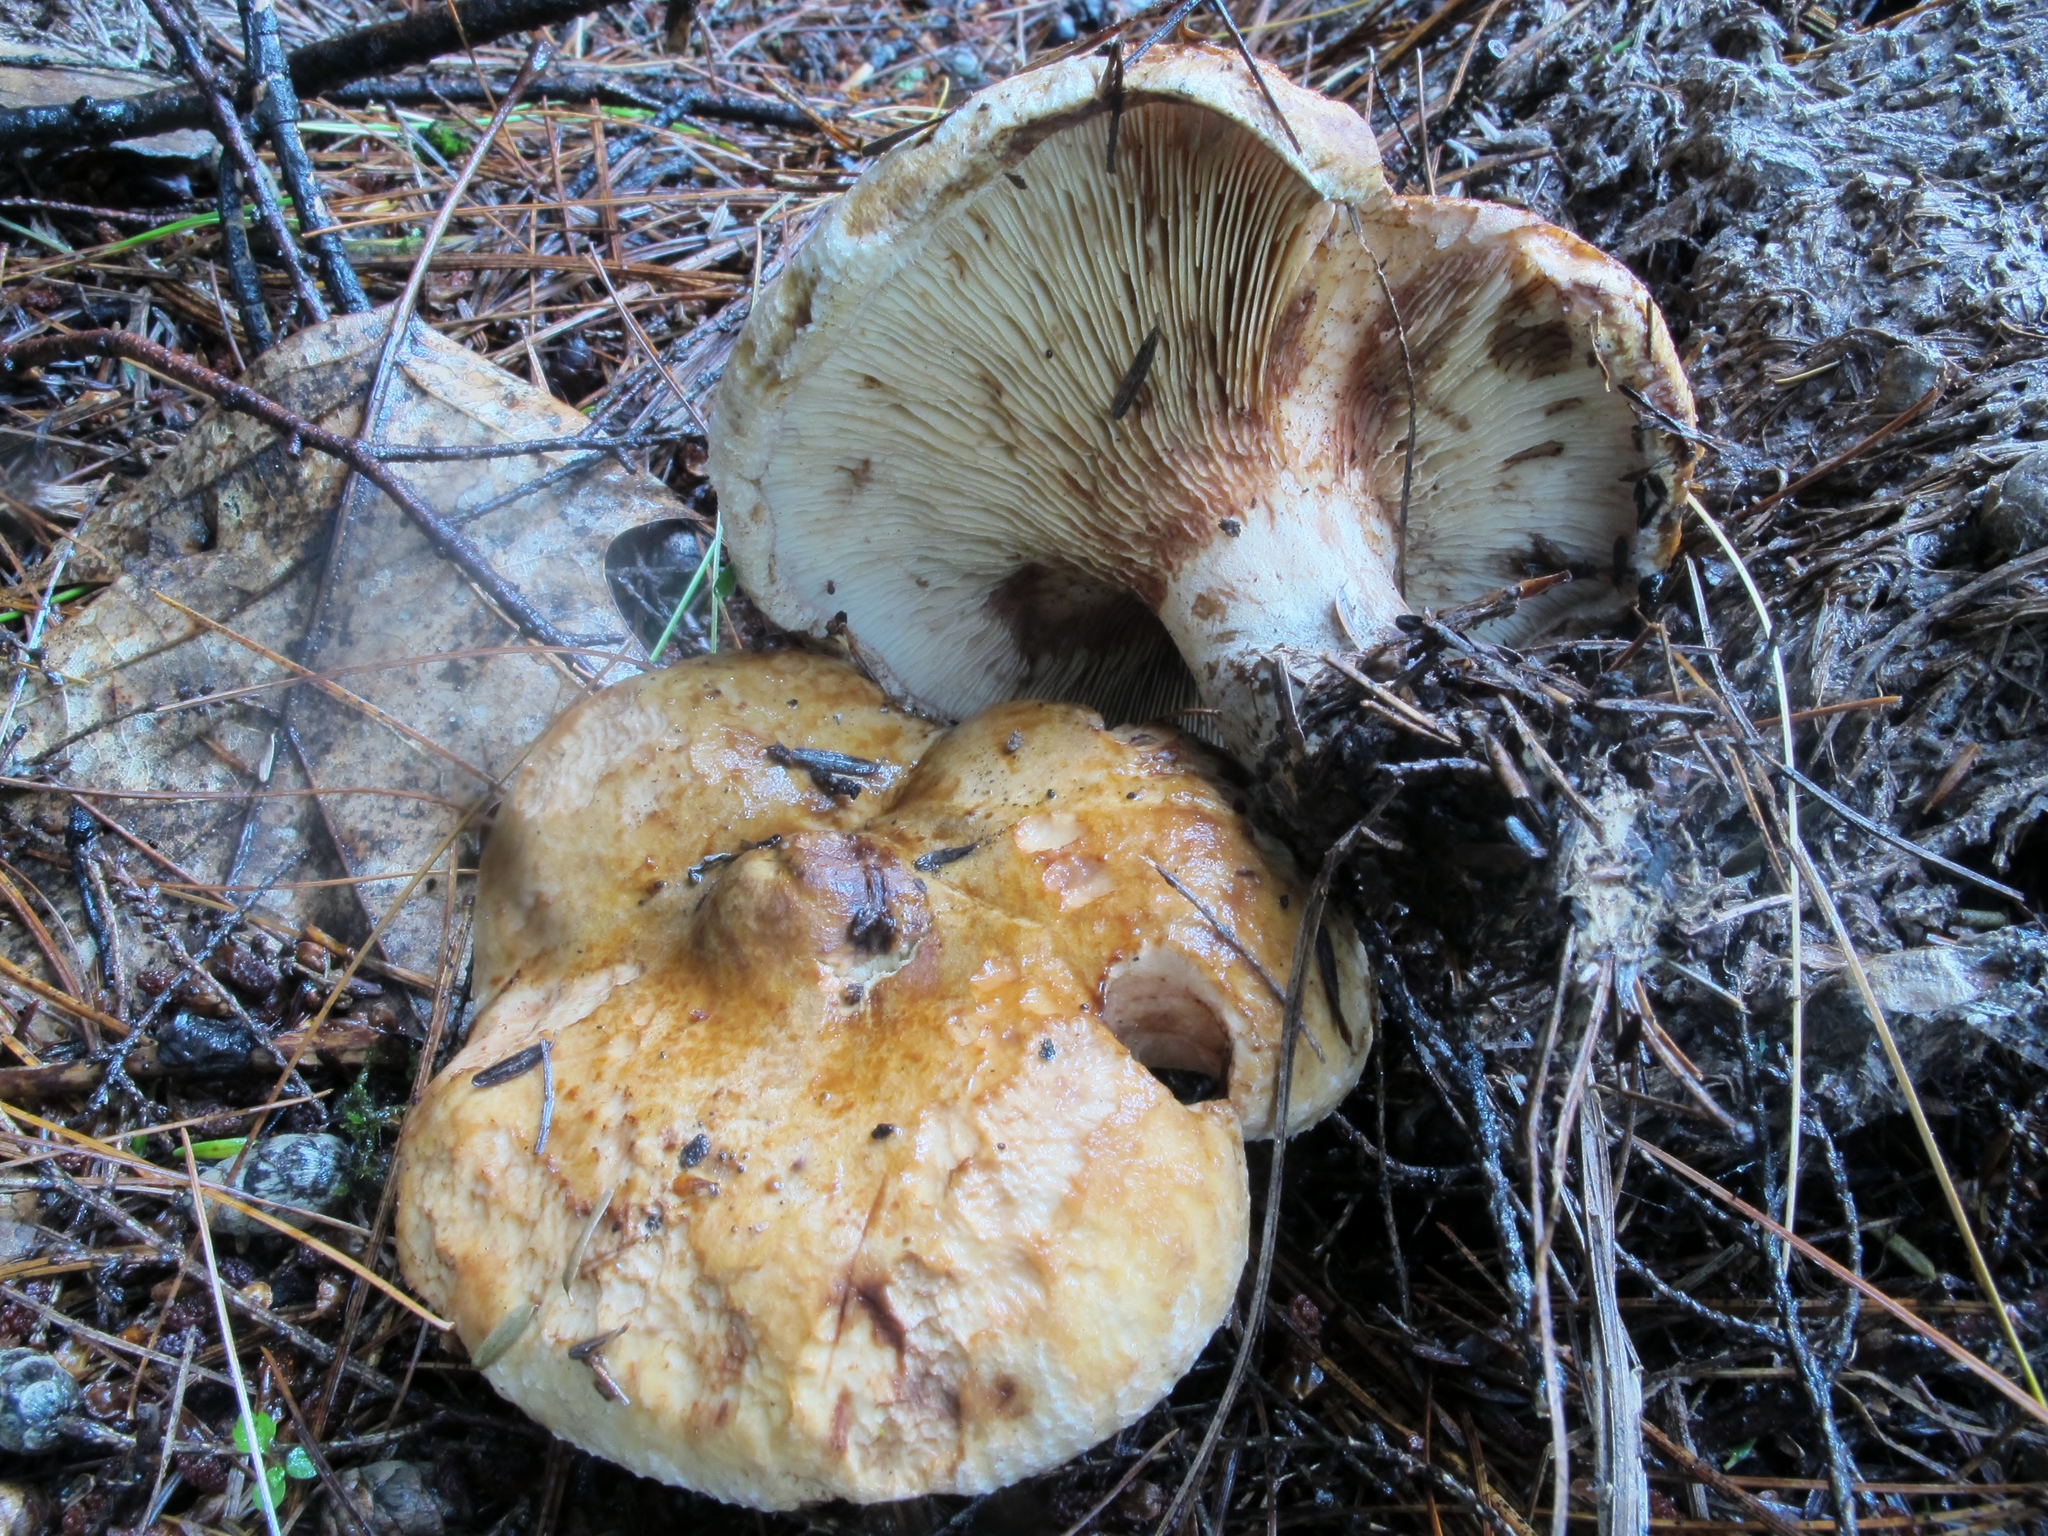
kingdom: Fungi
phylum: Basidiomycota
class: Agaricomycetes
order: Boletales
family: Paxillaceae
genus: Paxillus
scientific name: Paxillus involutus
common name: Brown roll rim
